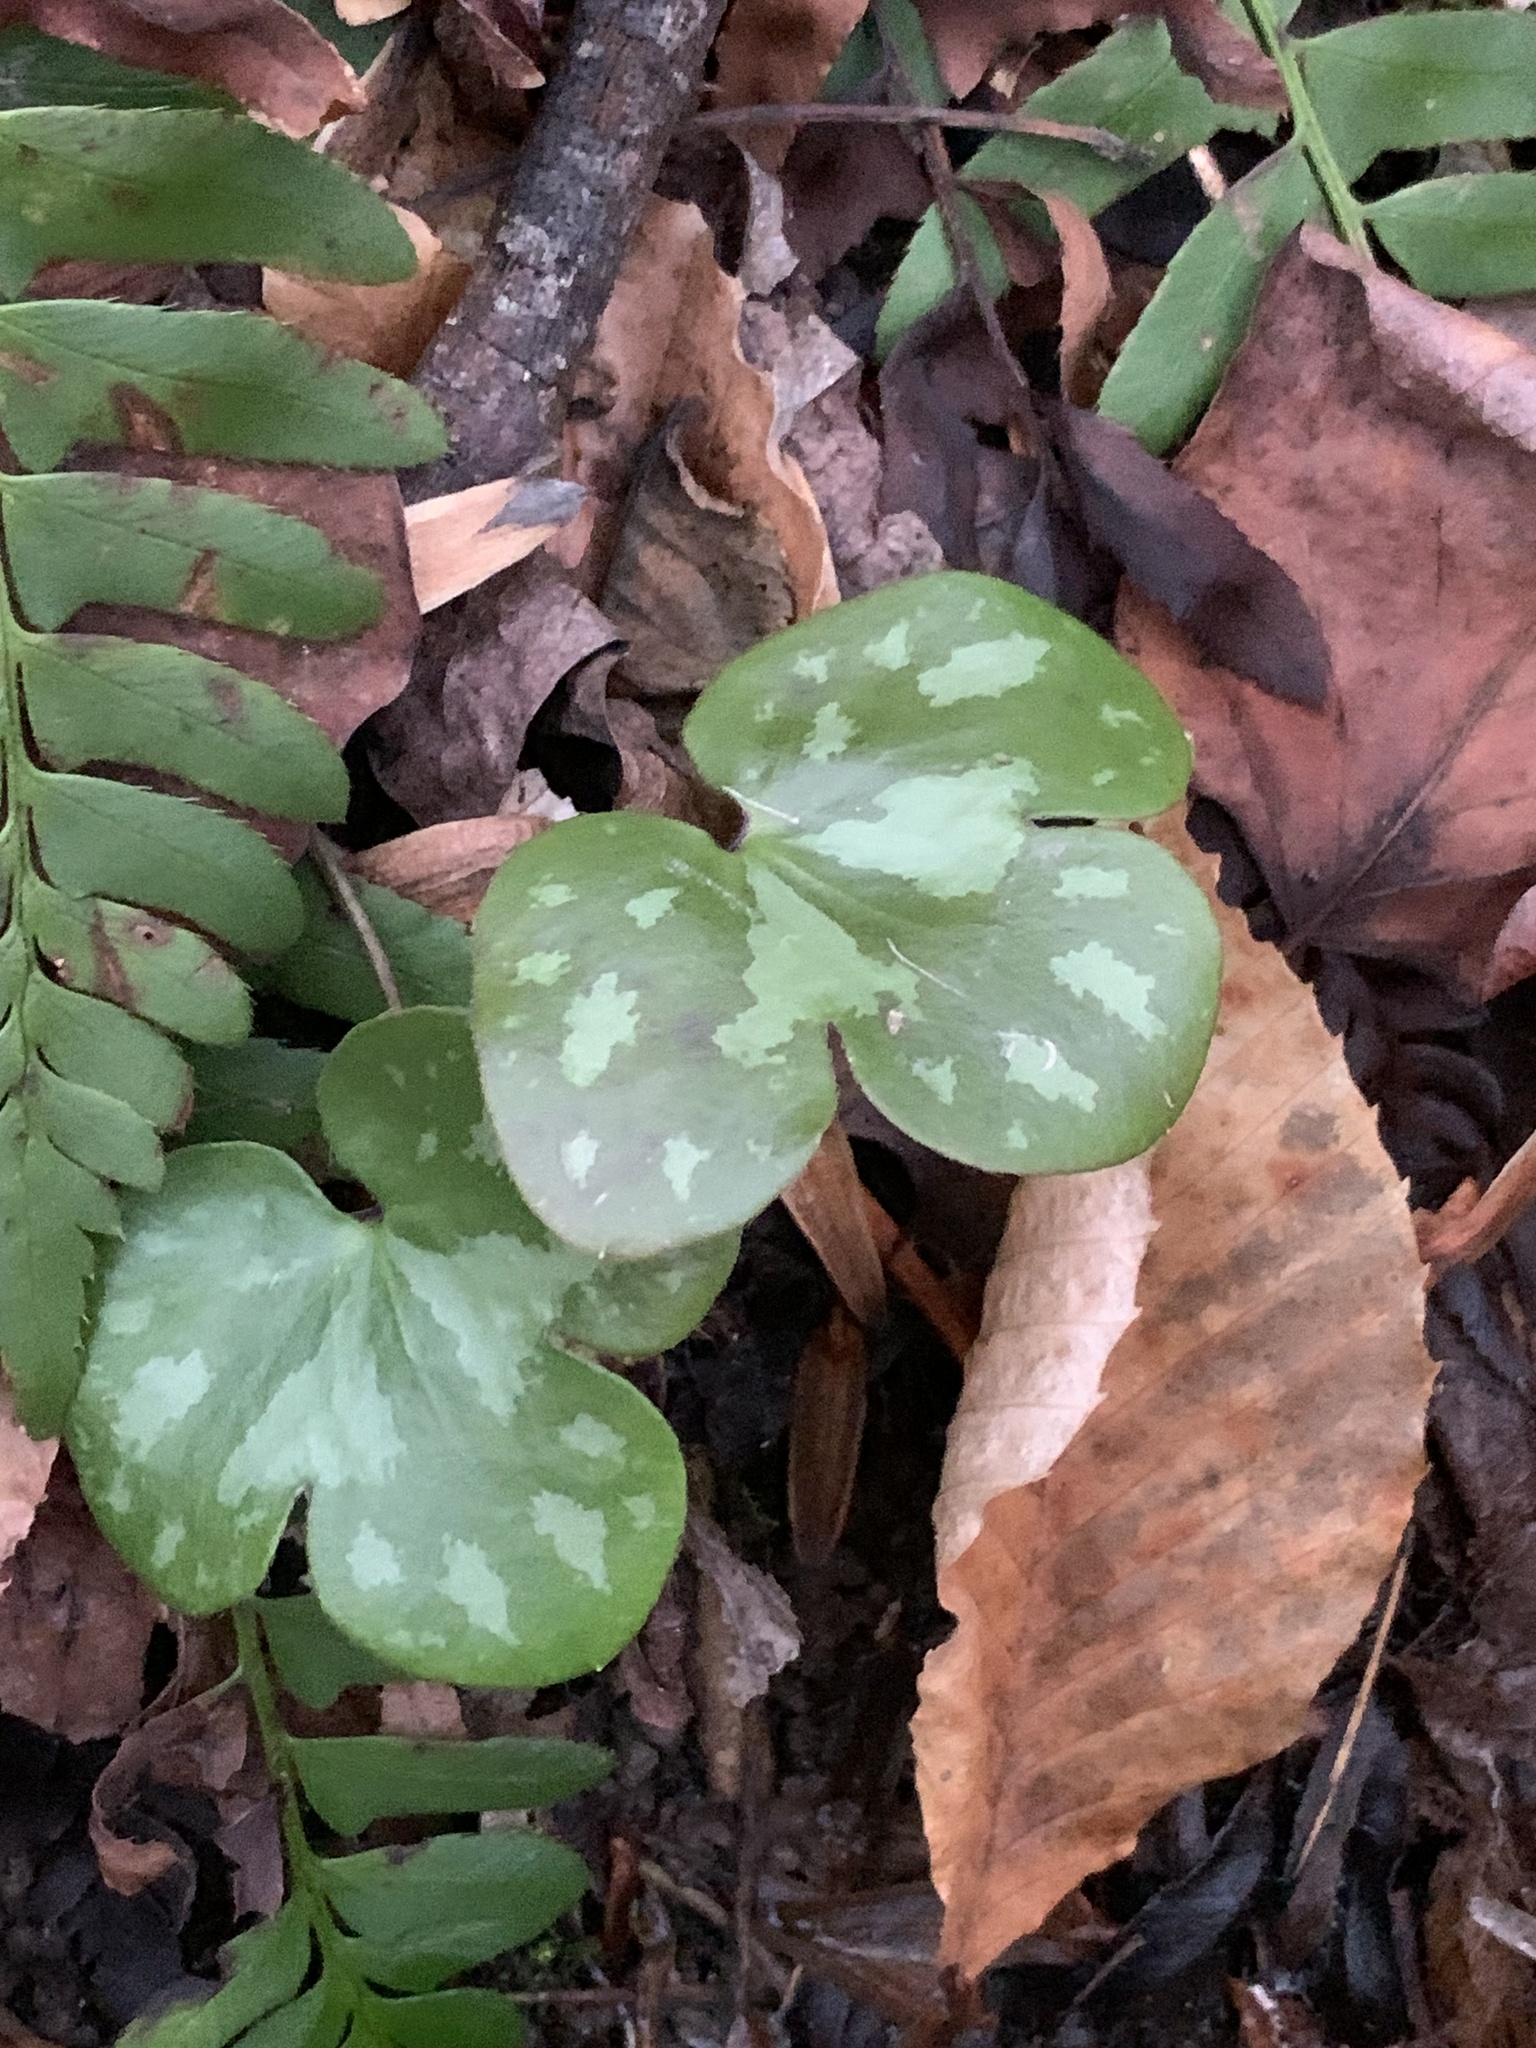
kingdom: Plantae
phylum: Tracheophyta
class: Magnoliopsida
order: Ranunculales
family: Ranunculaceae
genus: Hepatica
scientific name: Hepatica americana
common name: American hepatica
